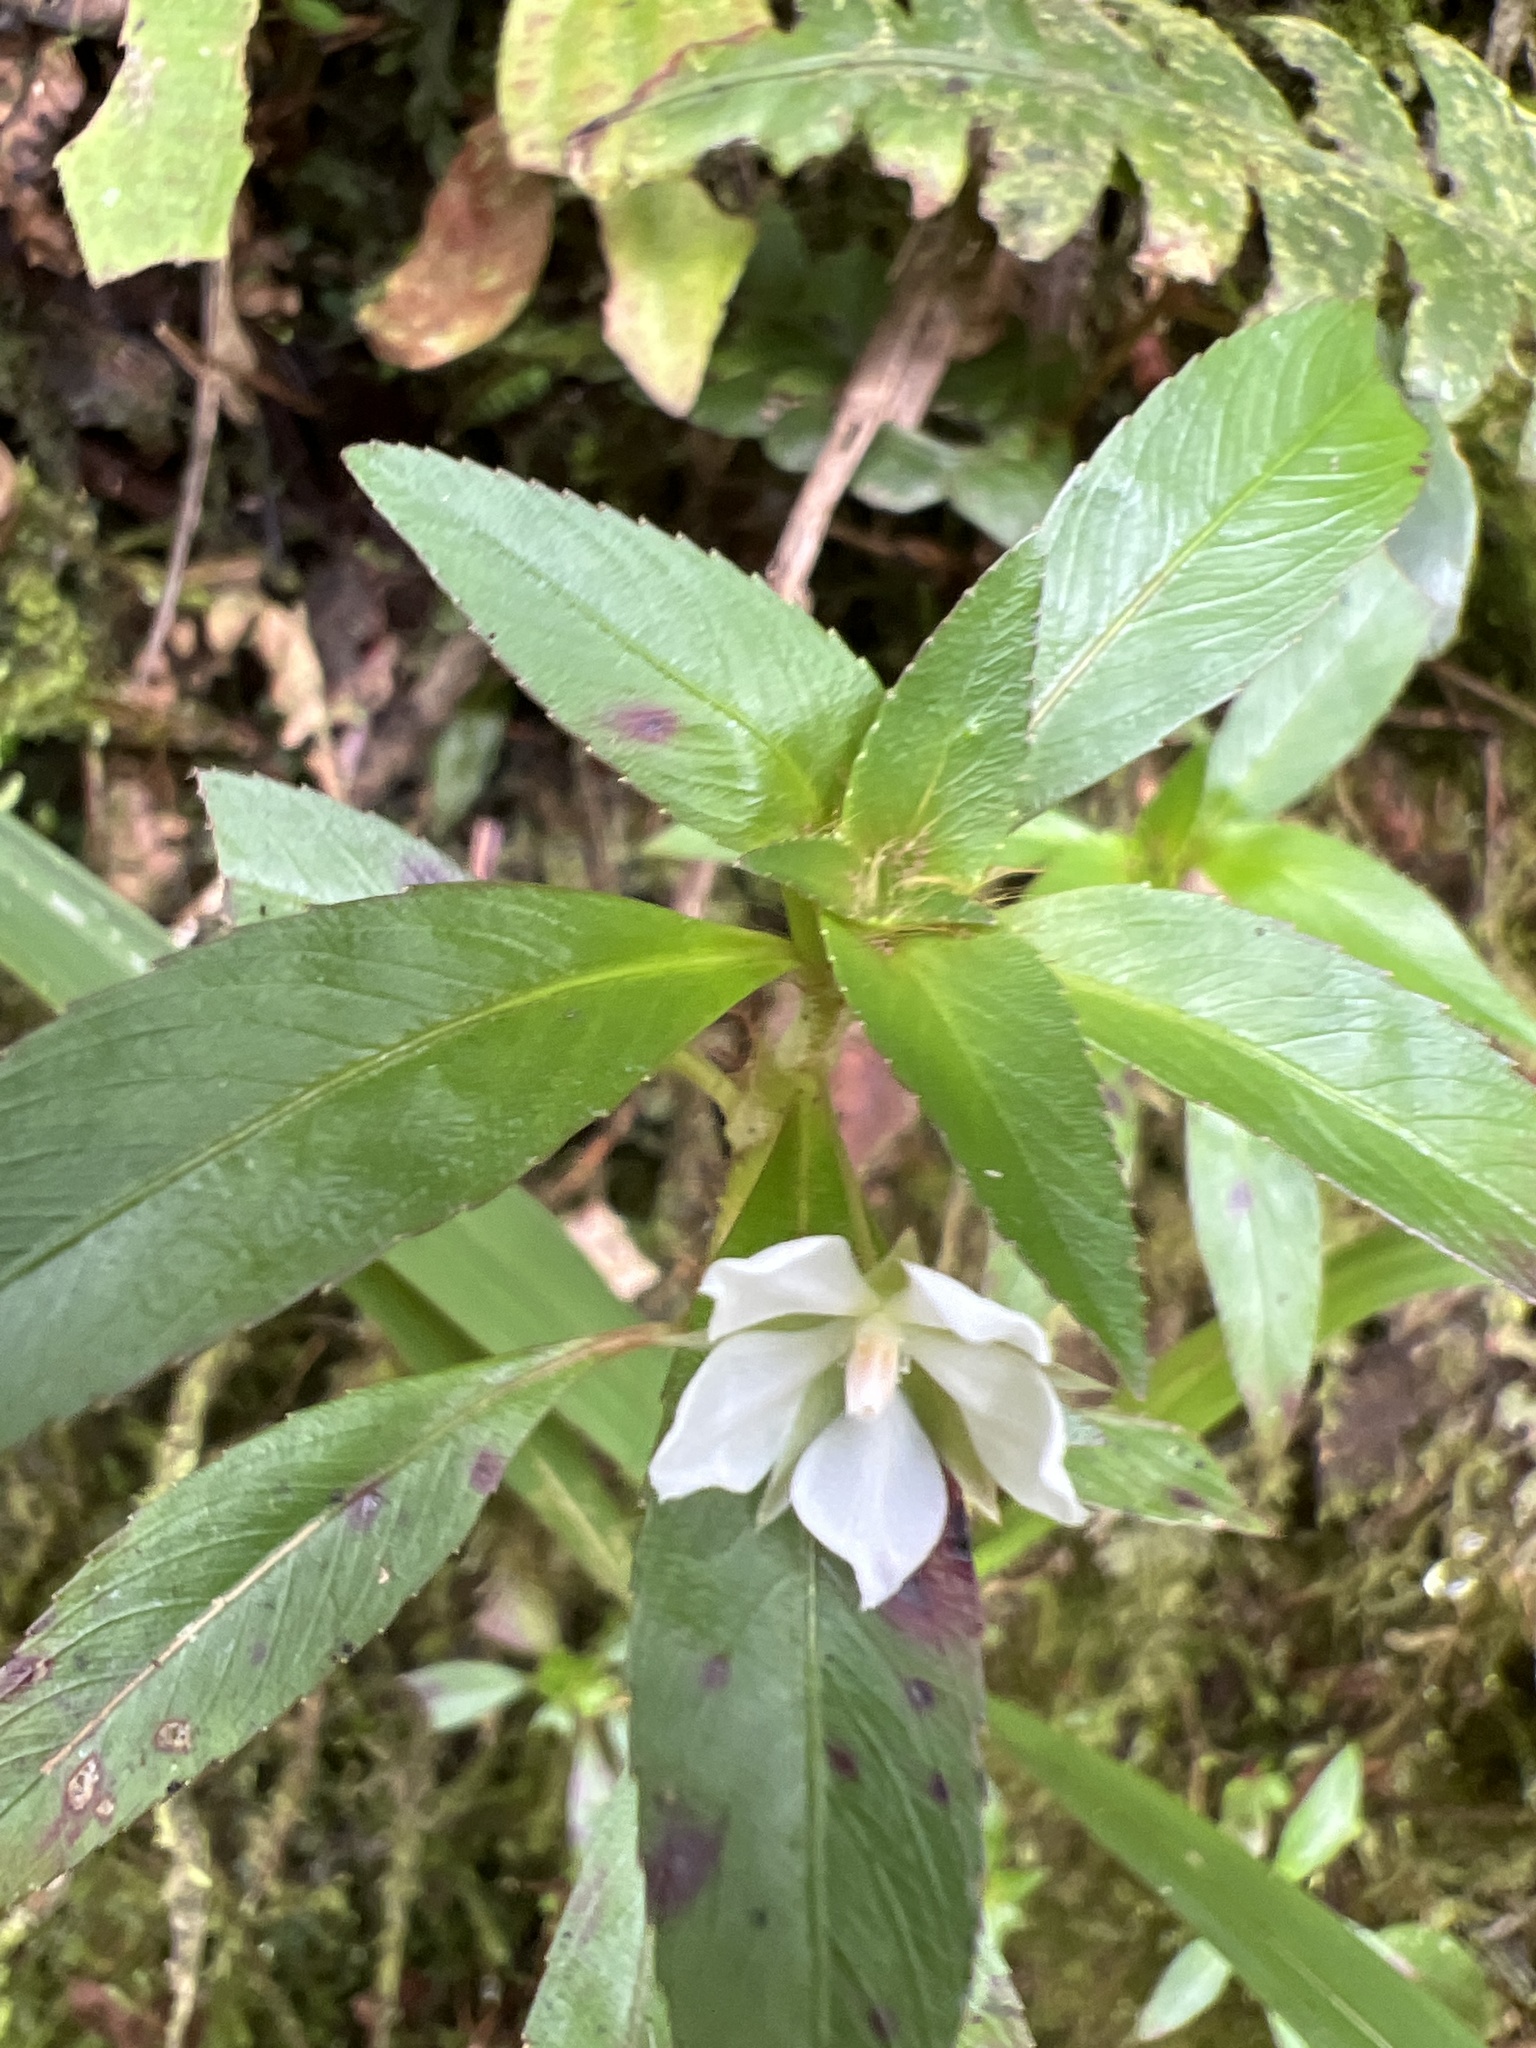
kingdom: Plantae
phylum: Tracheophyta
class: Magnoliopsida
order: Malpighiales
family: Ochnaceae
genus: Sauvagesia
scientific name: Sauvagesia erecta
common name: Creole tea
